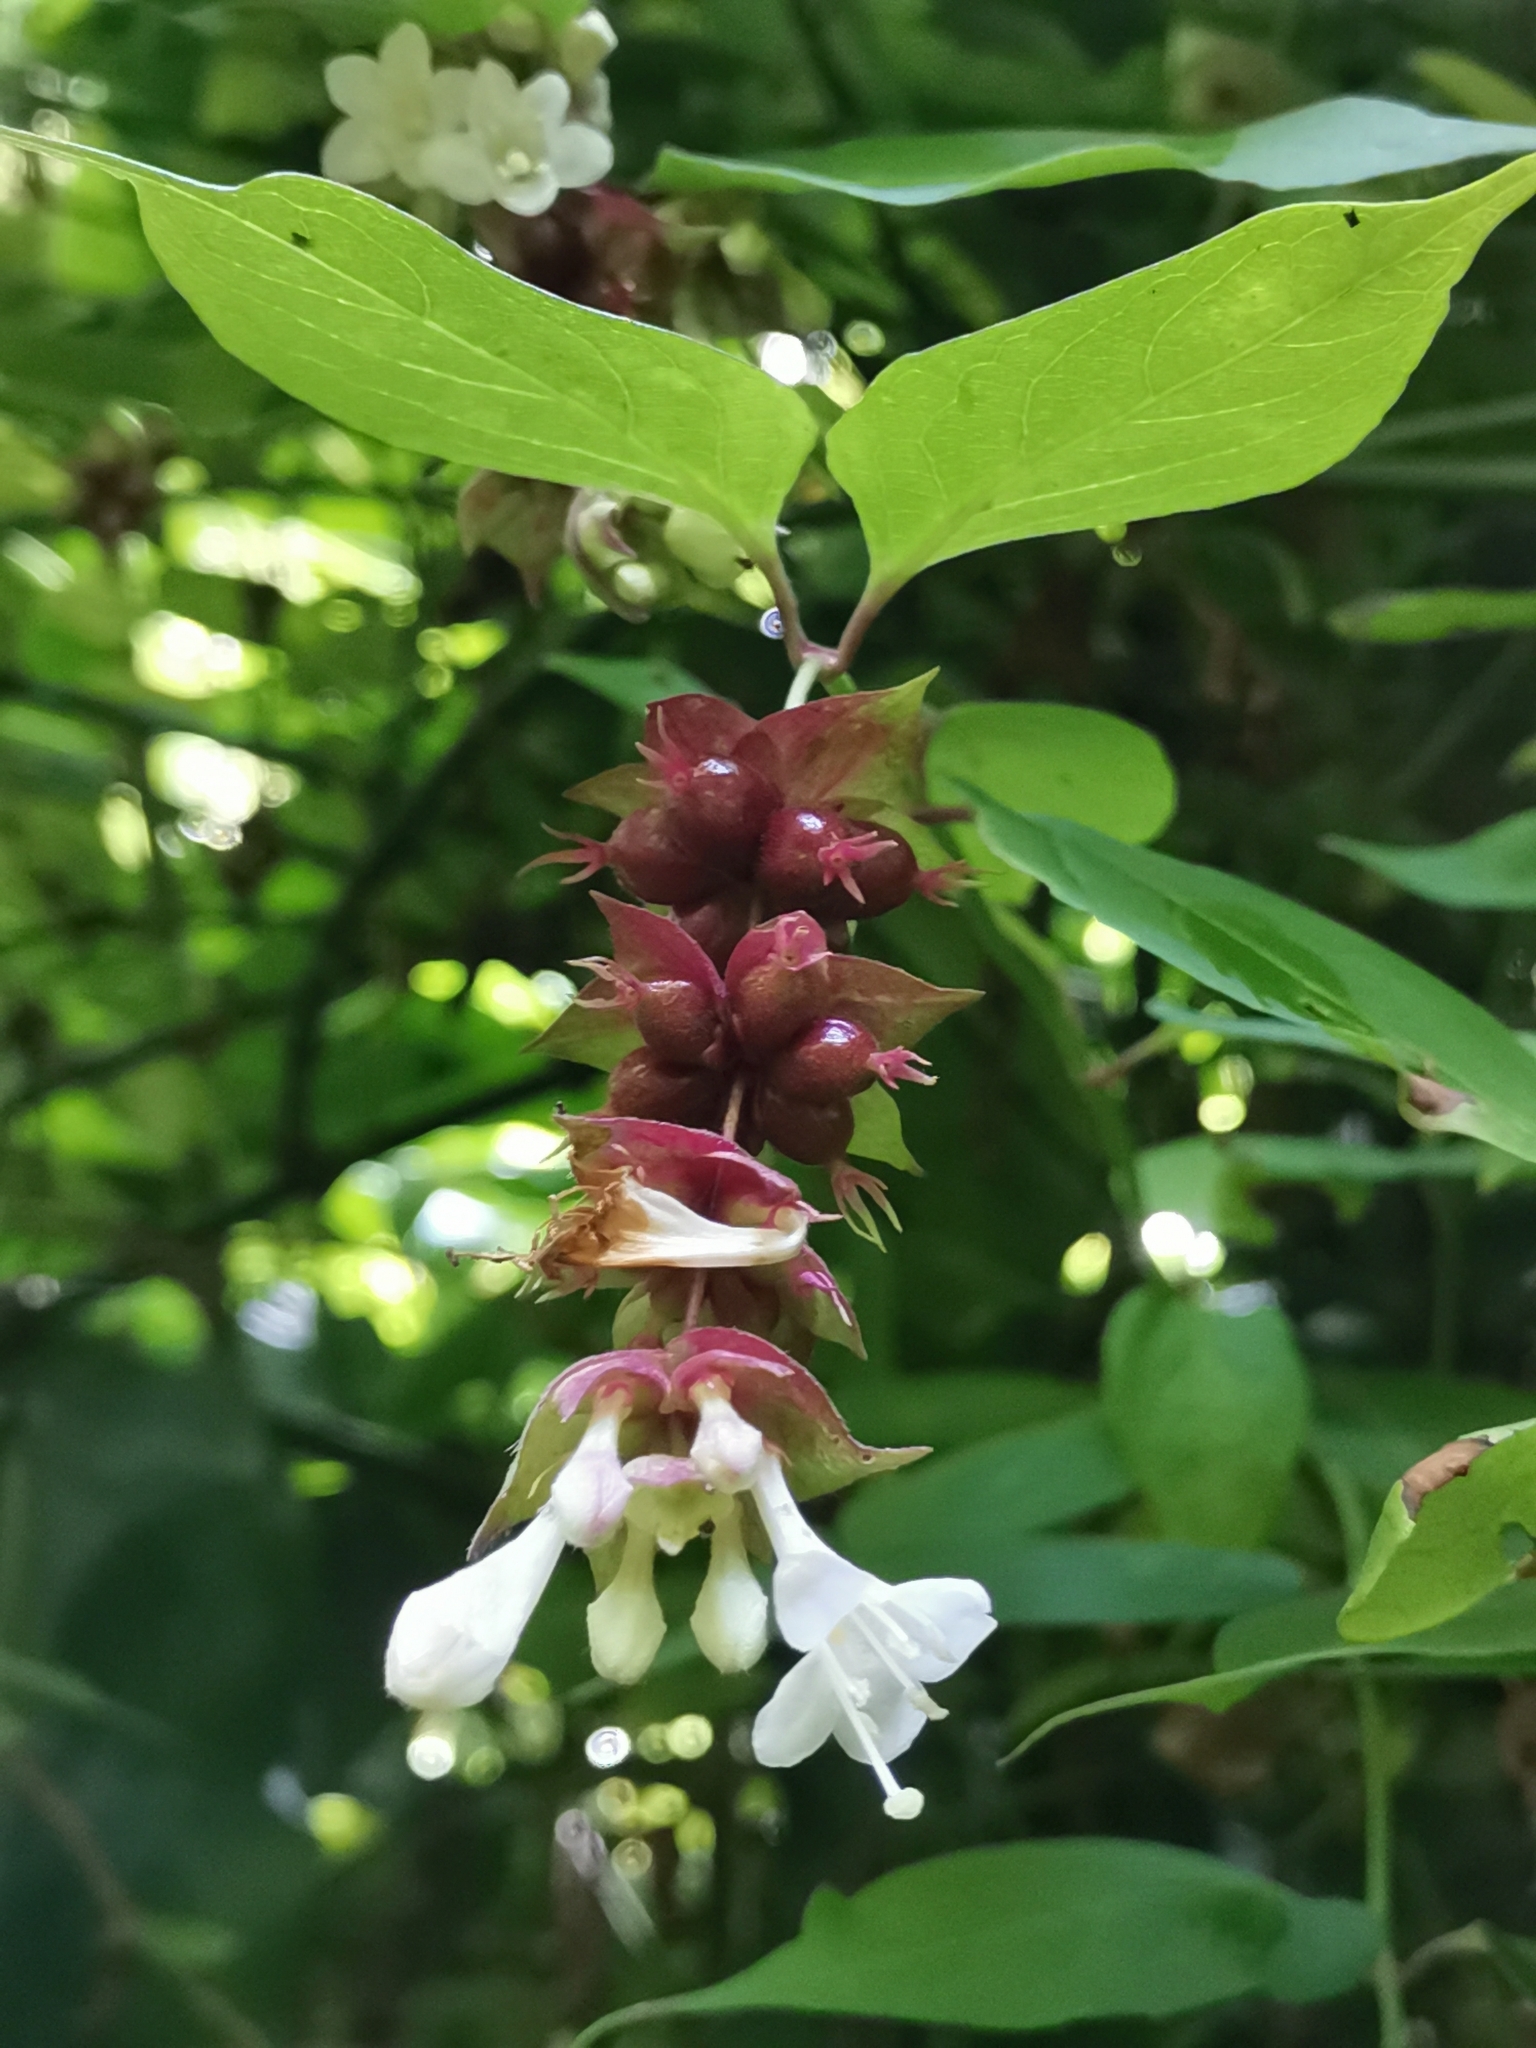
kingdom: Plantae
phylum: Tracheophyta
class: Magnoliopsida
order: Dipsacales
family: Caprifoliaceae
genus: Leycesteria
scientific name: Leycesteria formosa
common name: Himalayan honeysuckle
